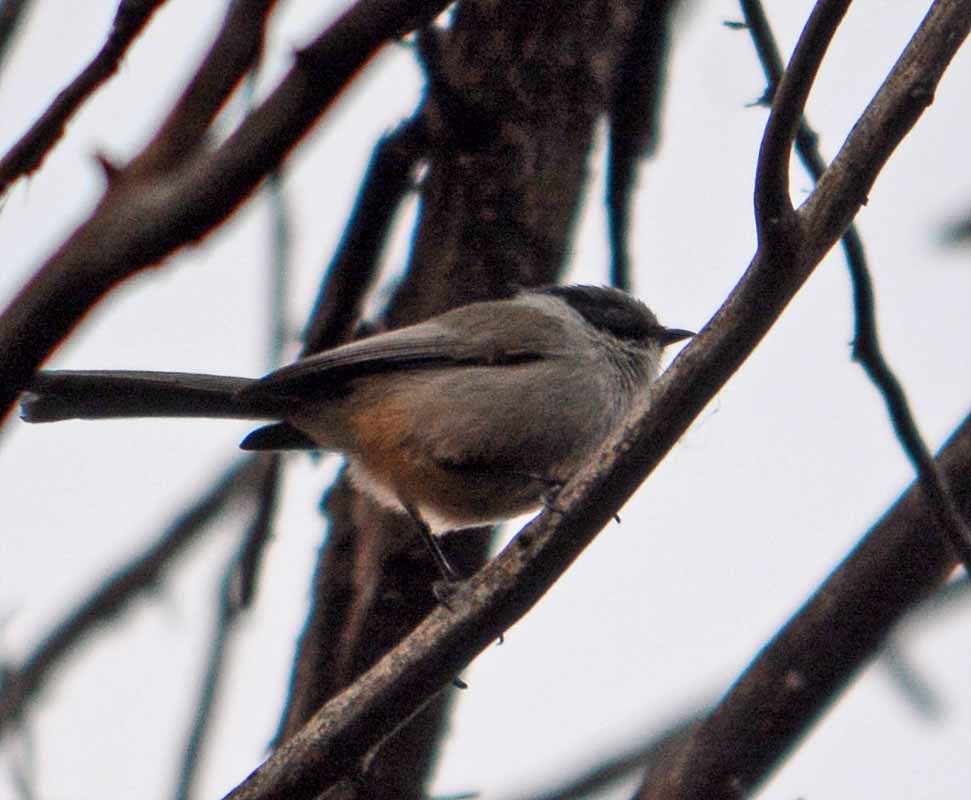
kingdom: Animalia
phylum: Chordata
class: Aves
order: Passeriformes
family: Aegithalidae
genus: Psaltriparus
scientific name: Psaltriparus minimus
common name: American bushtit
